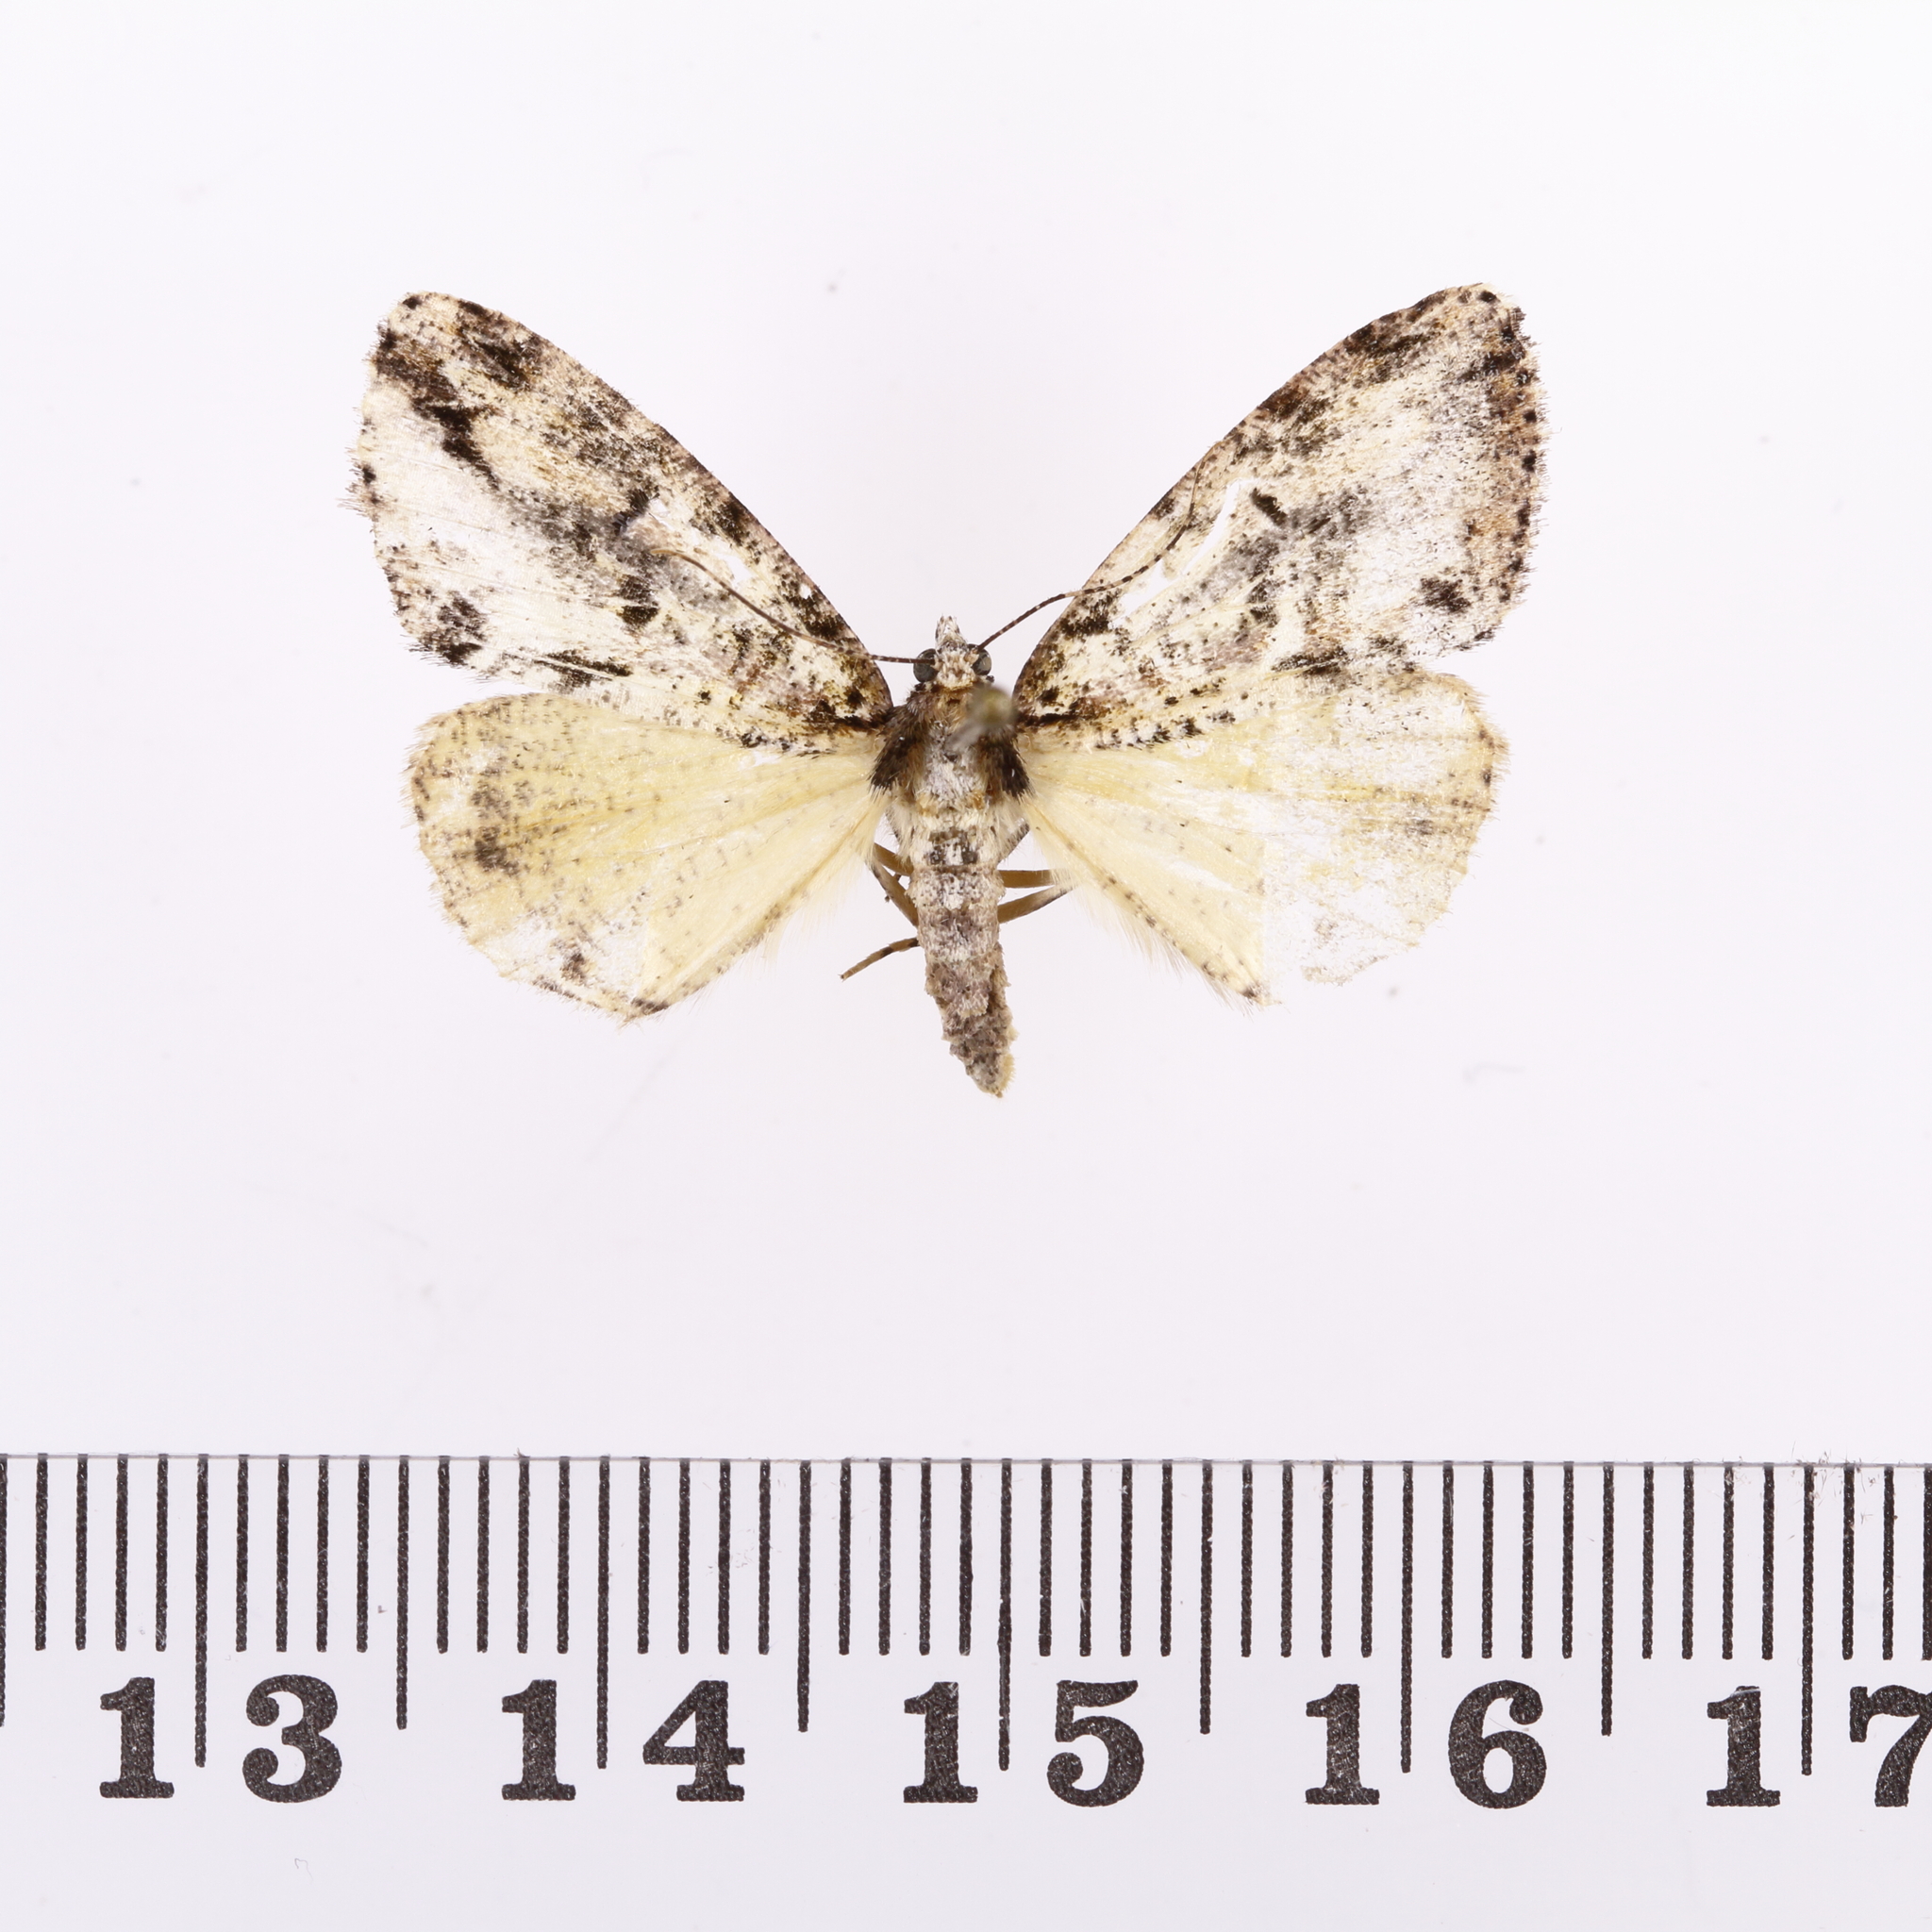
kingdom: Animalia
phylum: Arthropoda
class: Insecta
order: Lepidoptera
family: Geometridae
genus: Pseudocoremia
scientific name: Pseudocoremia suavis
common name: Common forest looper
